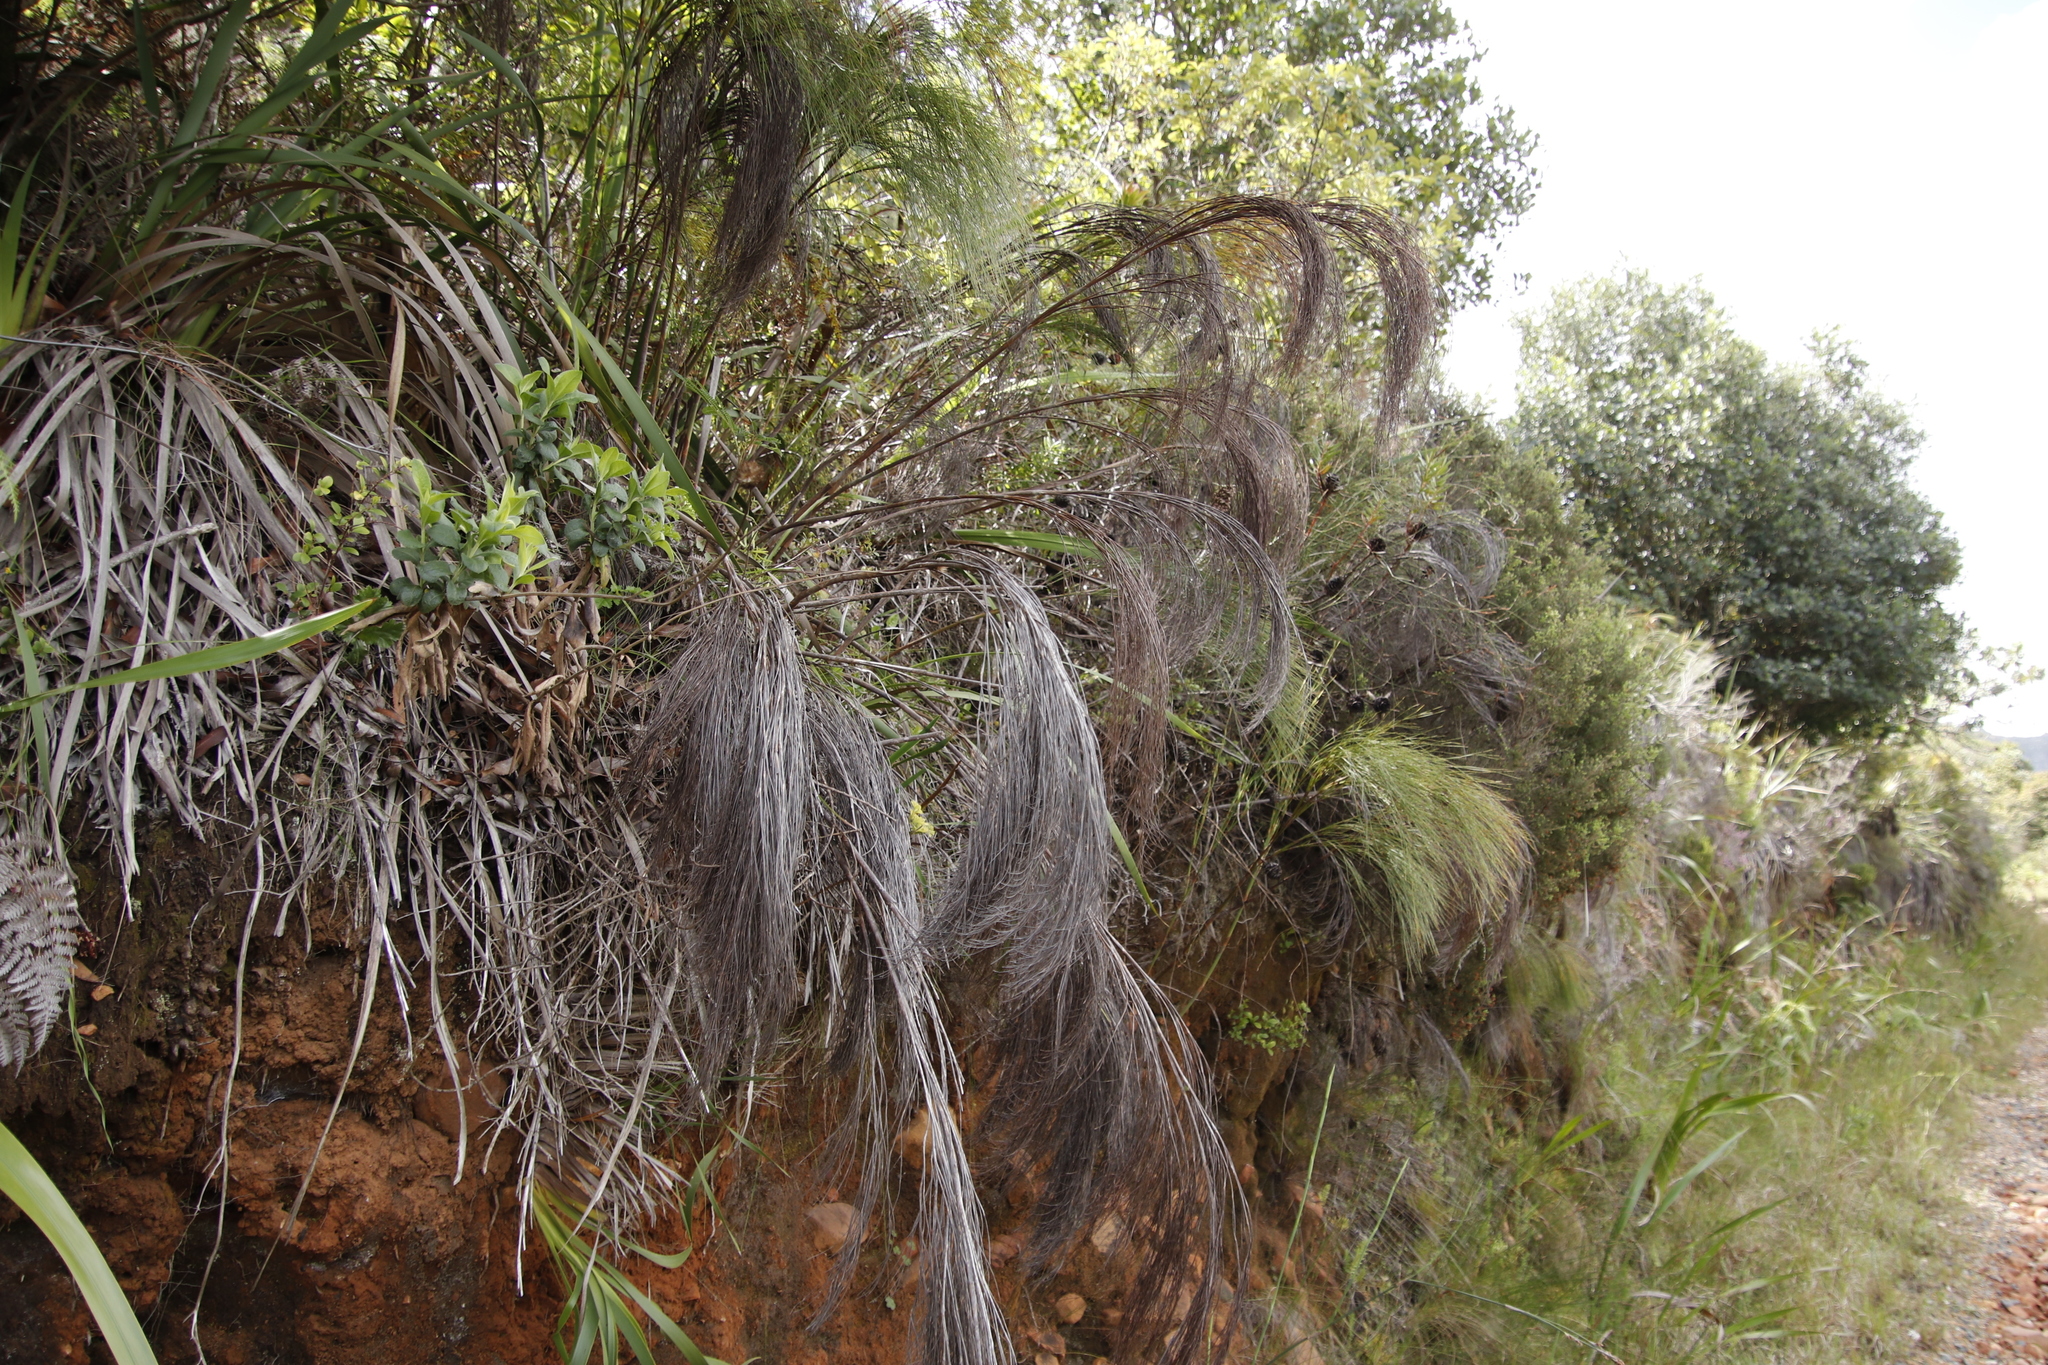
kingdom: Plantae
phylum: Tracheophyta
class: Liliopsida
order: Poales
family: Restionaceae
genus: Cannomois
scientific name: Cannomois virgata
